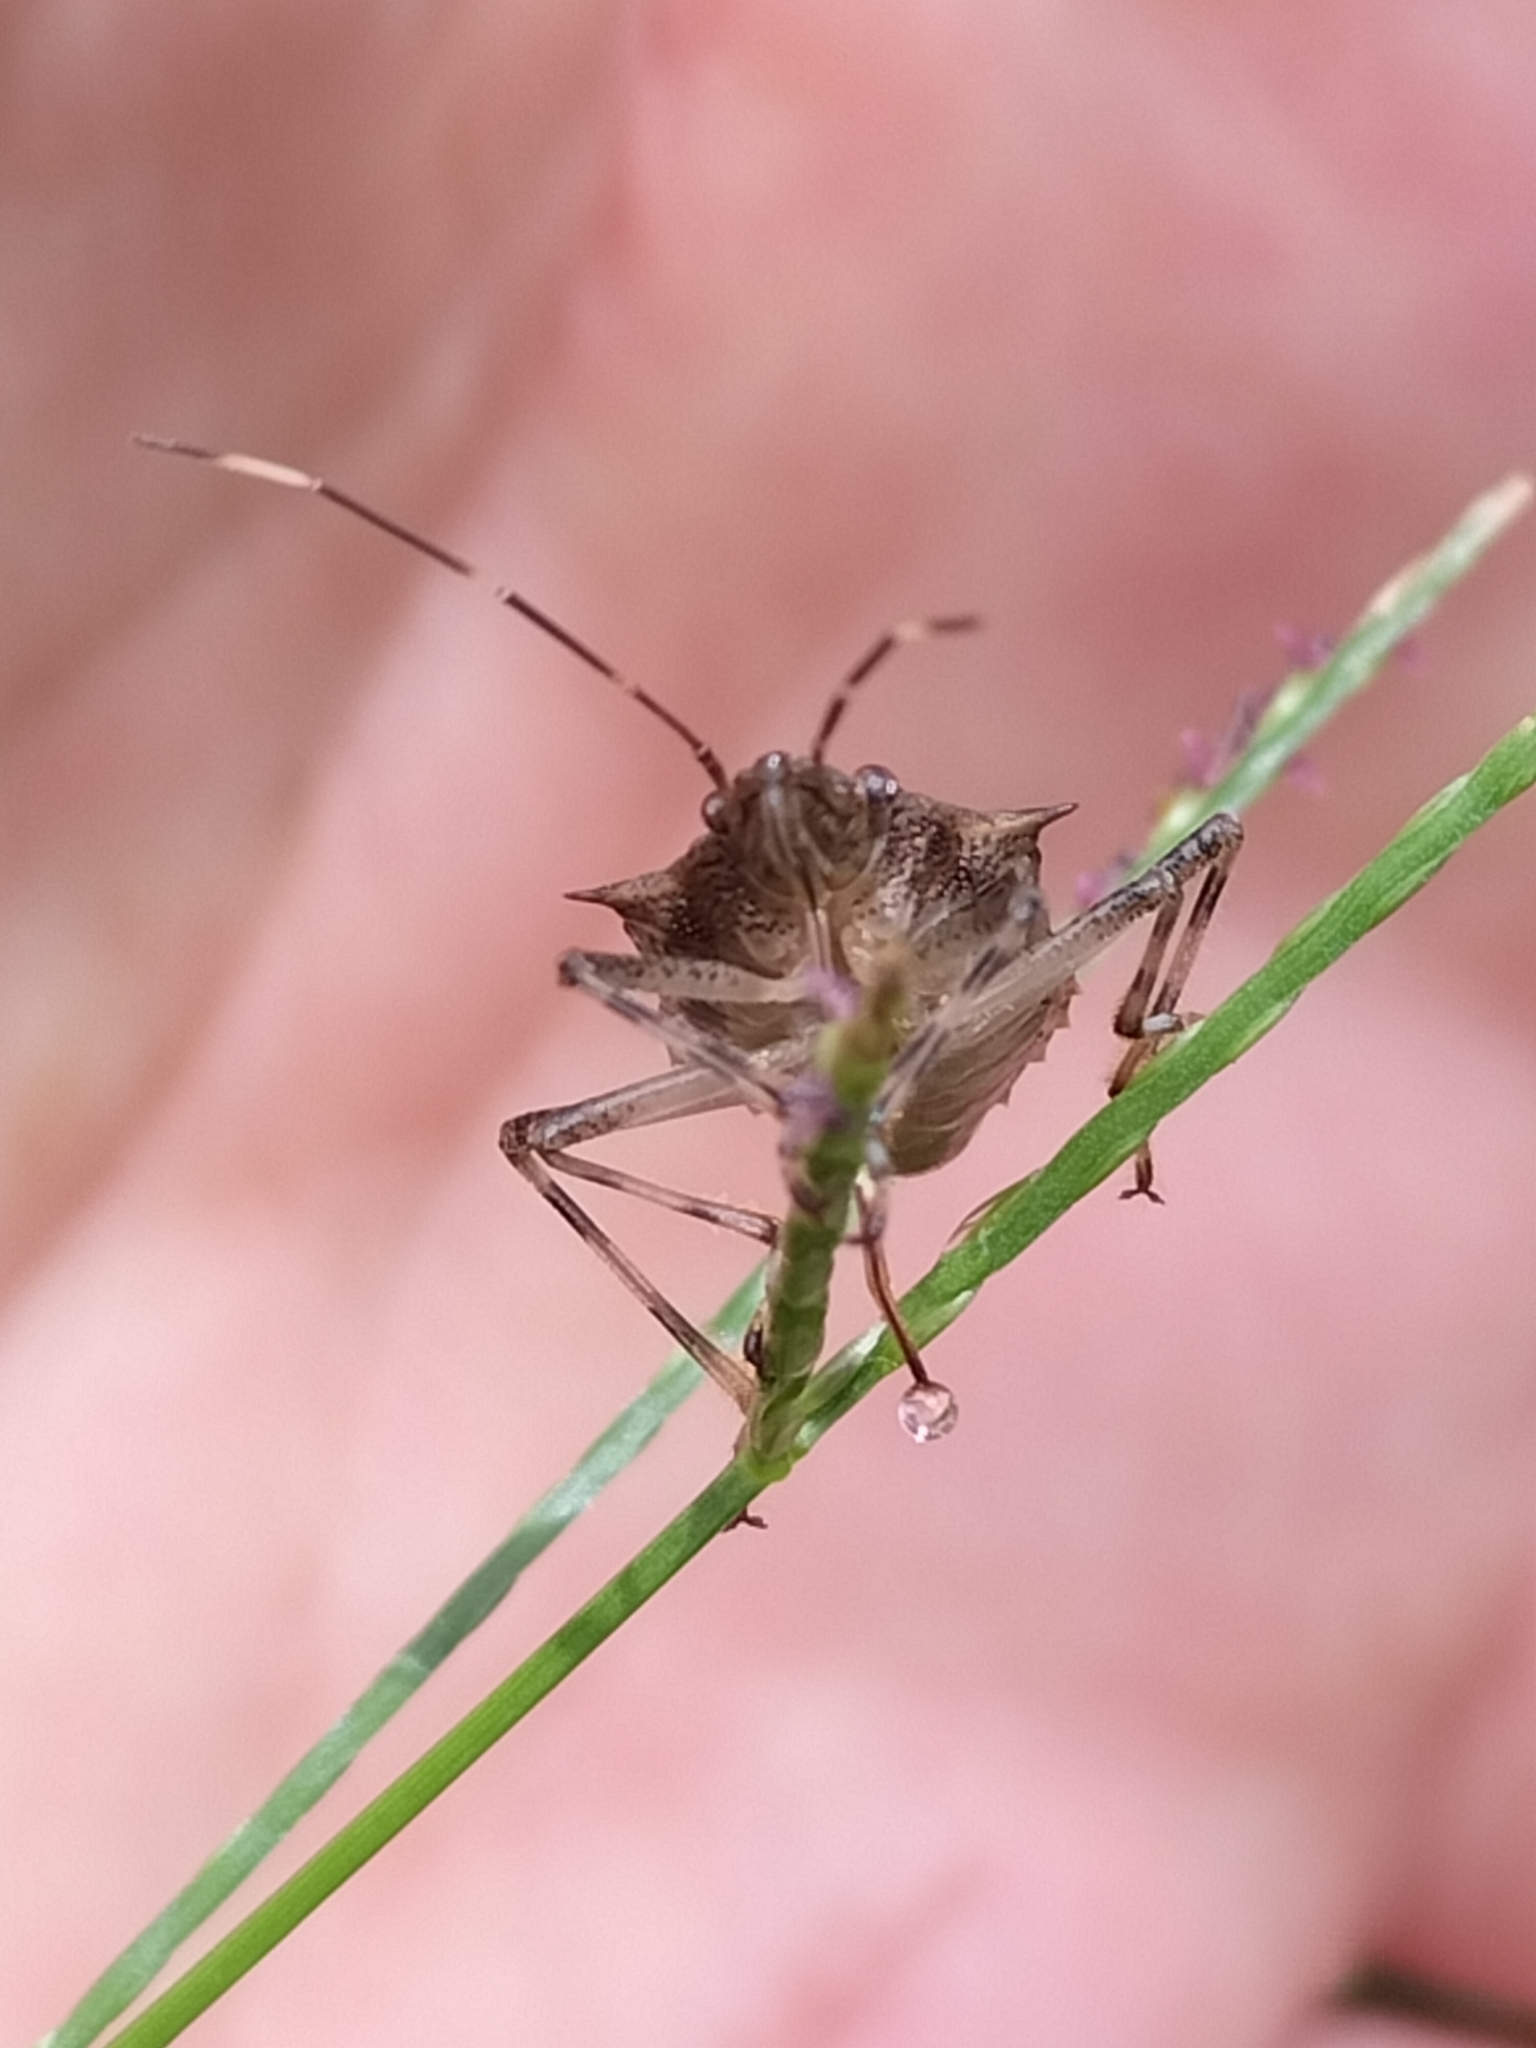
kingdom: Animalia
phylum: Arthropoda
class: Insecta
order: Hemiptera
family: Pentatomidae
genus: Bromocoris
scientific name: Bromocoris
